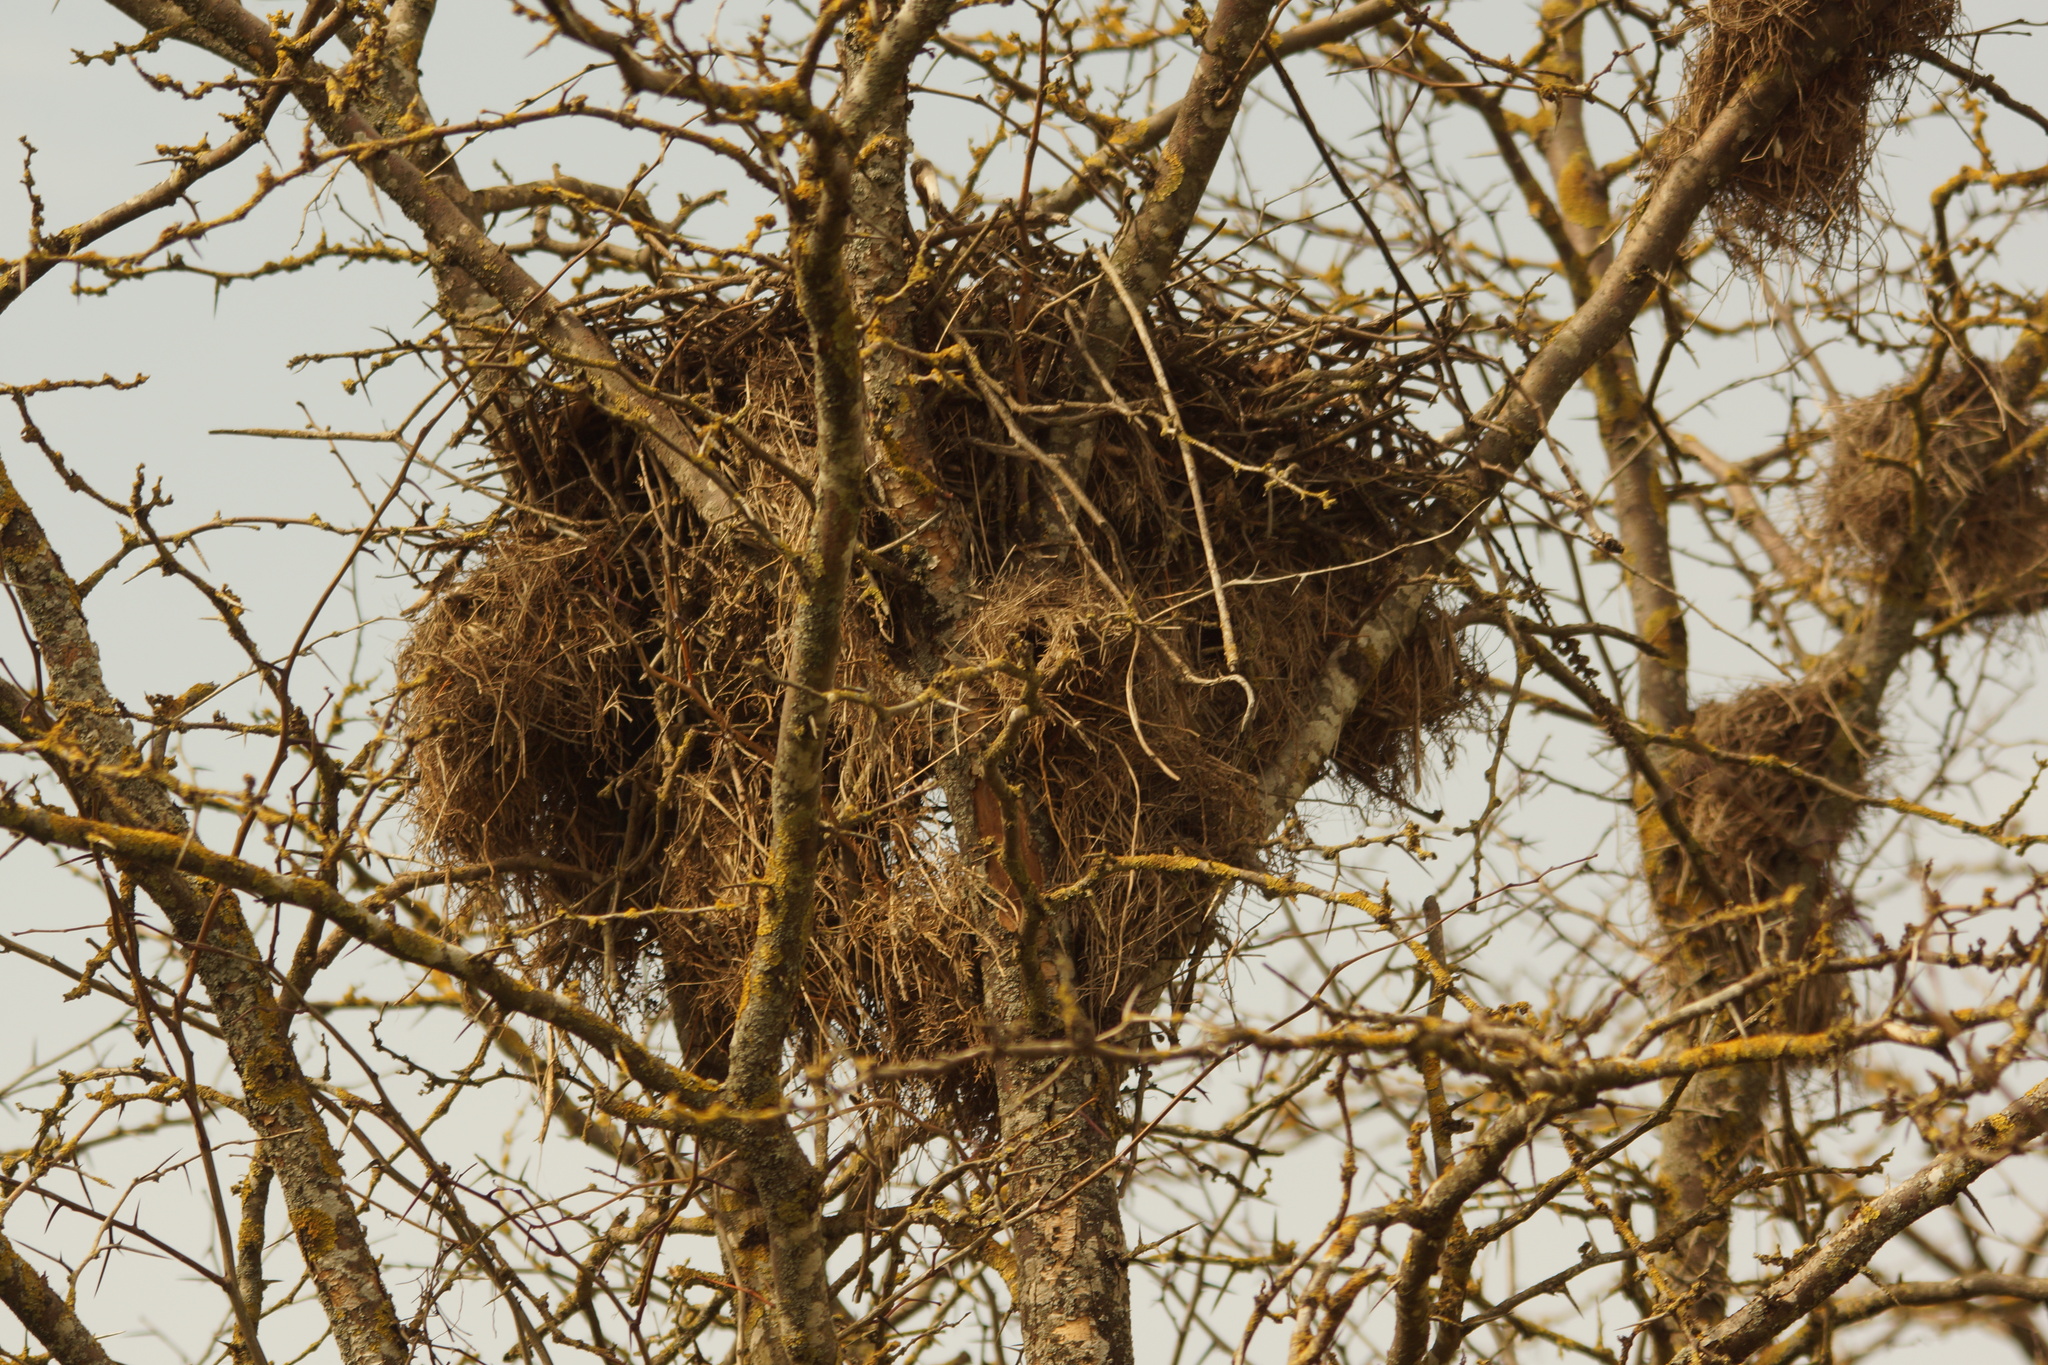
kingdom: Animalia
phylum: Chordata
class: Aves
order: Accipitriformes
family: Accipitridae
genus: Buteo
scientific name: Buteo buteo
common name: Common buzzard
